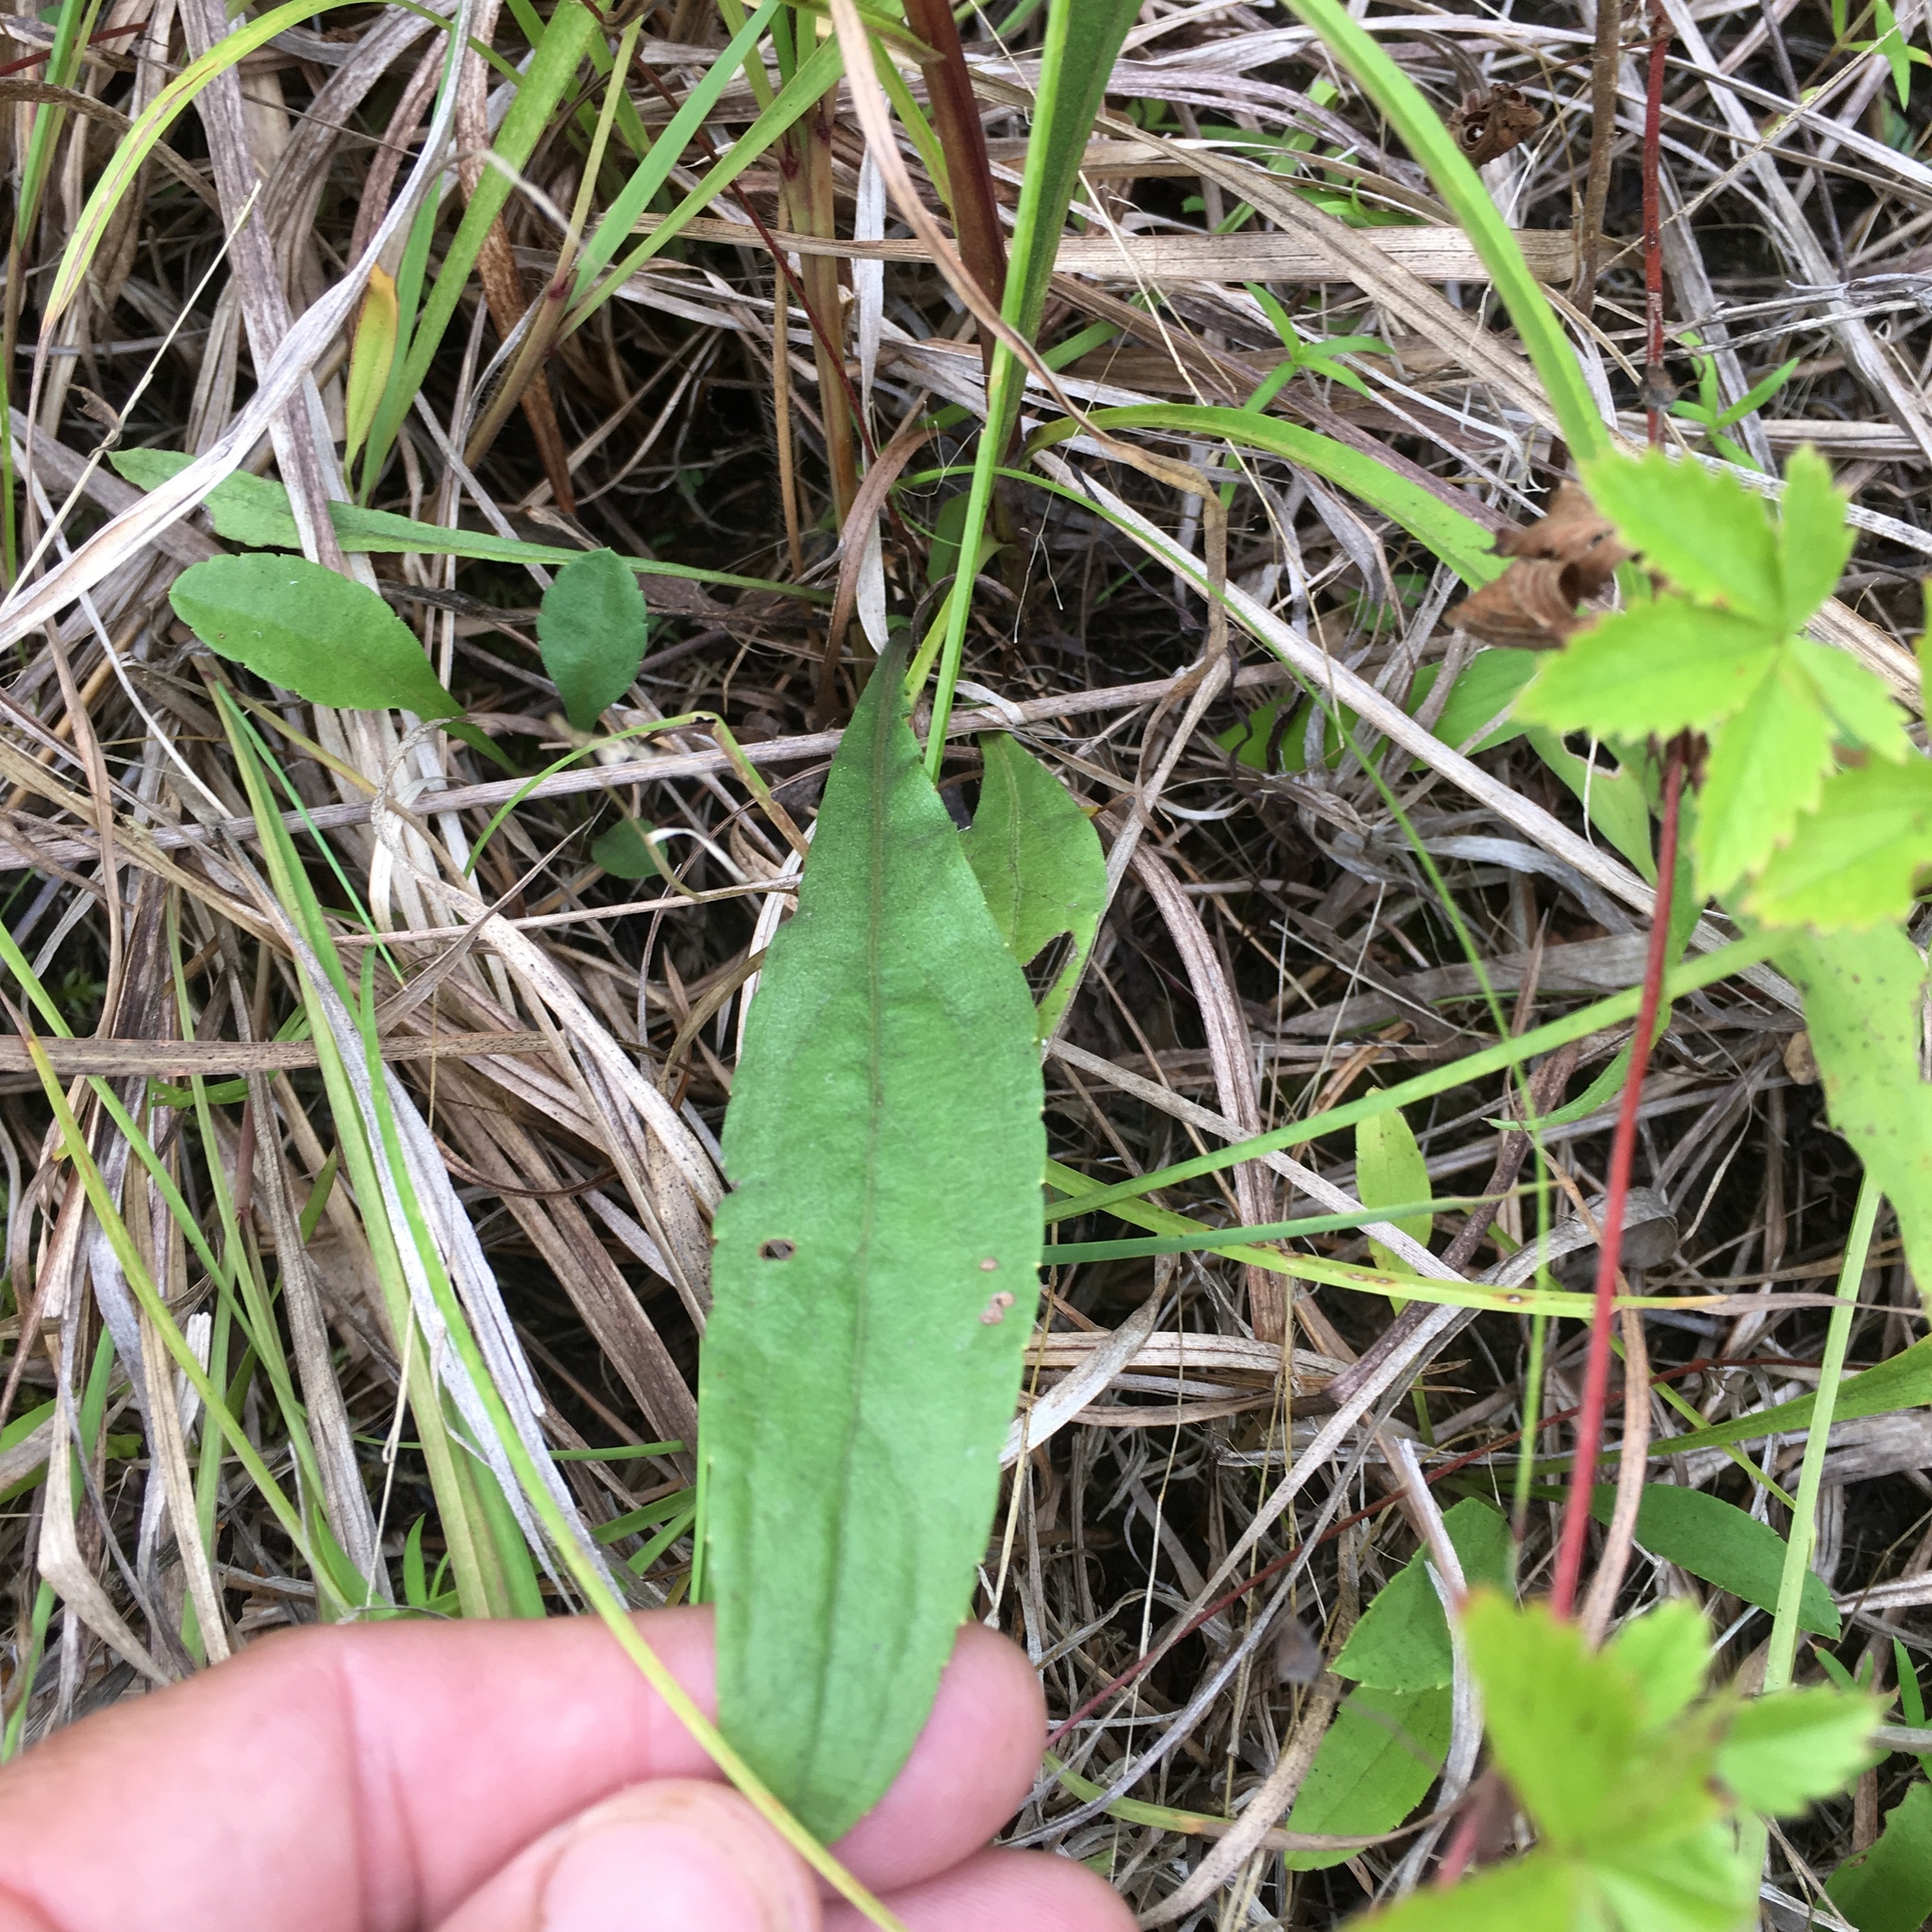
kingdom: Plantae
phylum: Tracheophyta
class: Magnoliopsida
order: Asterales
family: Asteraceae
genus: Solidago
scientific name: Solidago pinetorum
